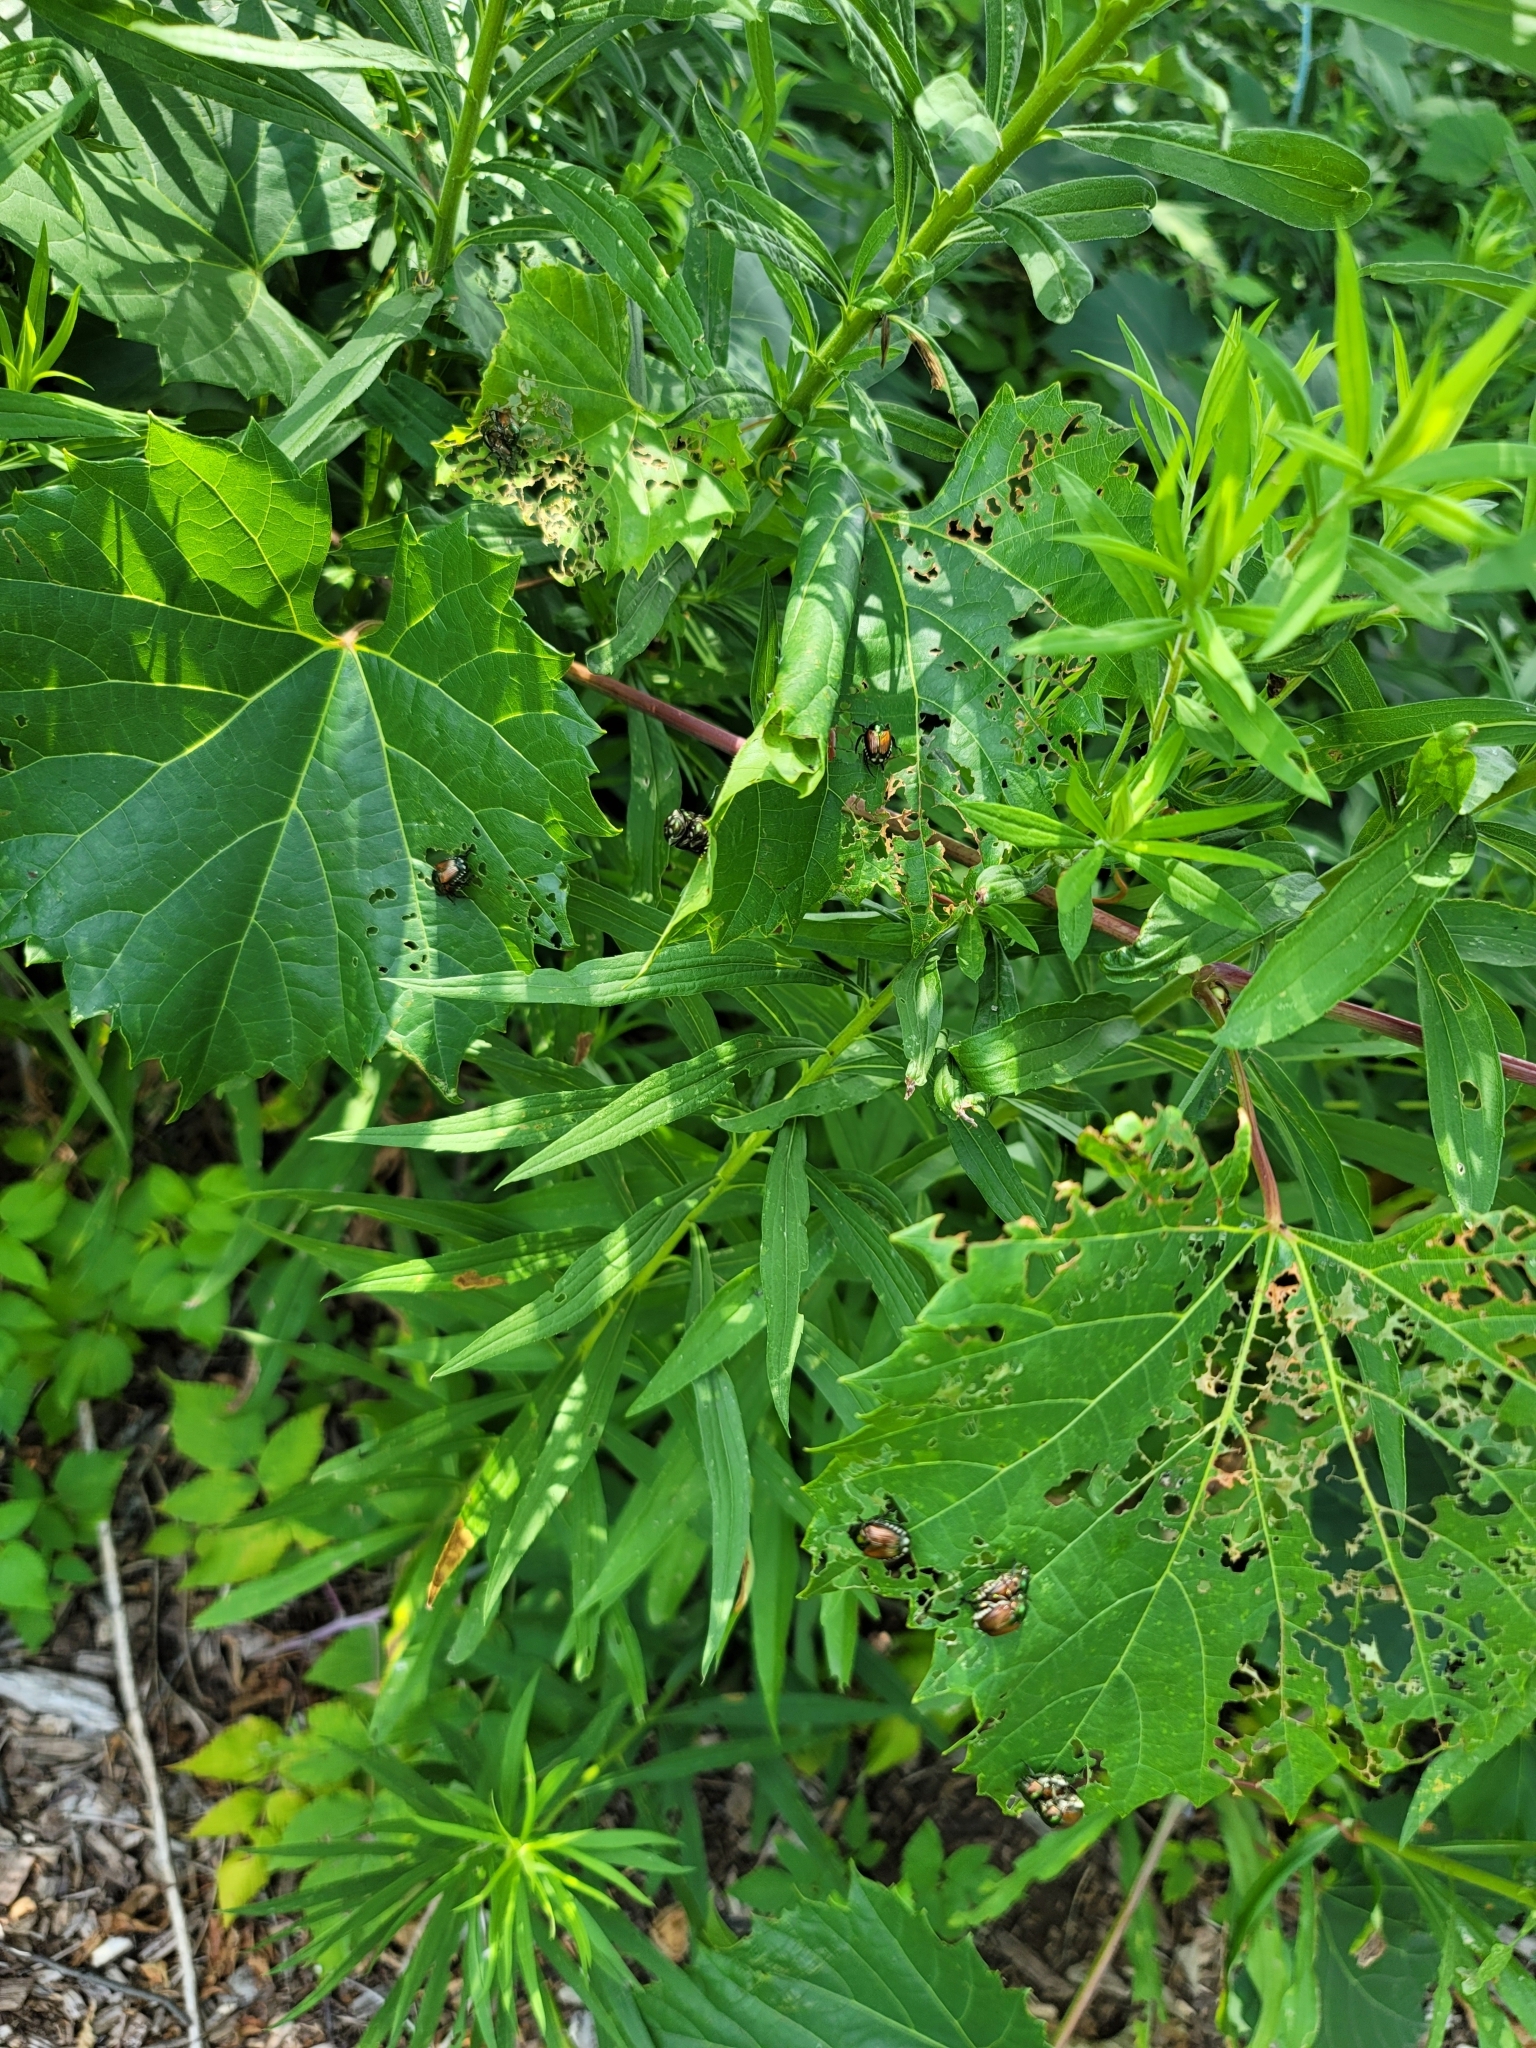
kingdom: Animalia
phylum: Arthropoda
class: Insecta
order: Coleoptera
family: Scarabaeidae
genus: Popillia
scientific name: Popillia japonica
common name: Japanese beetle
